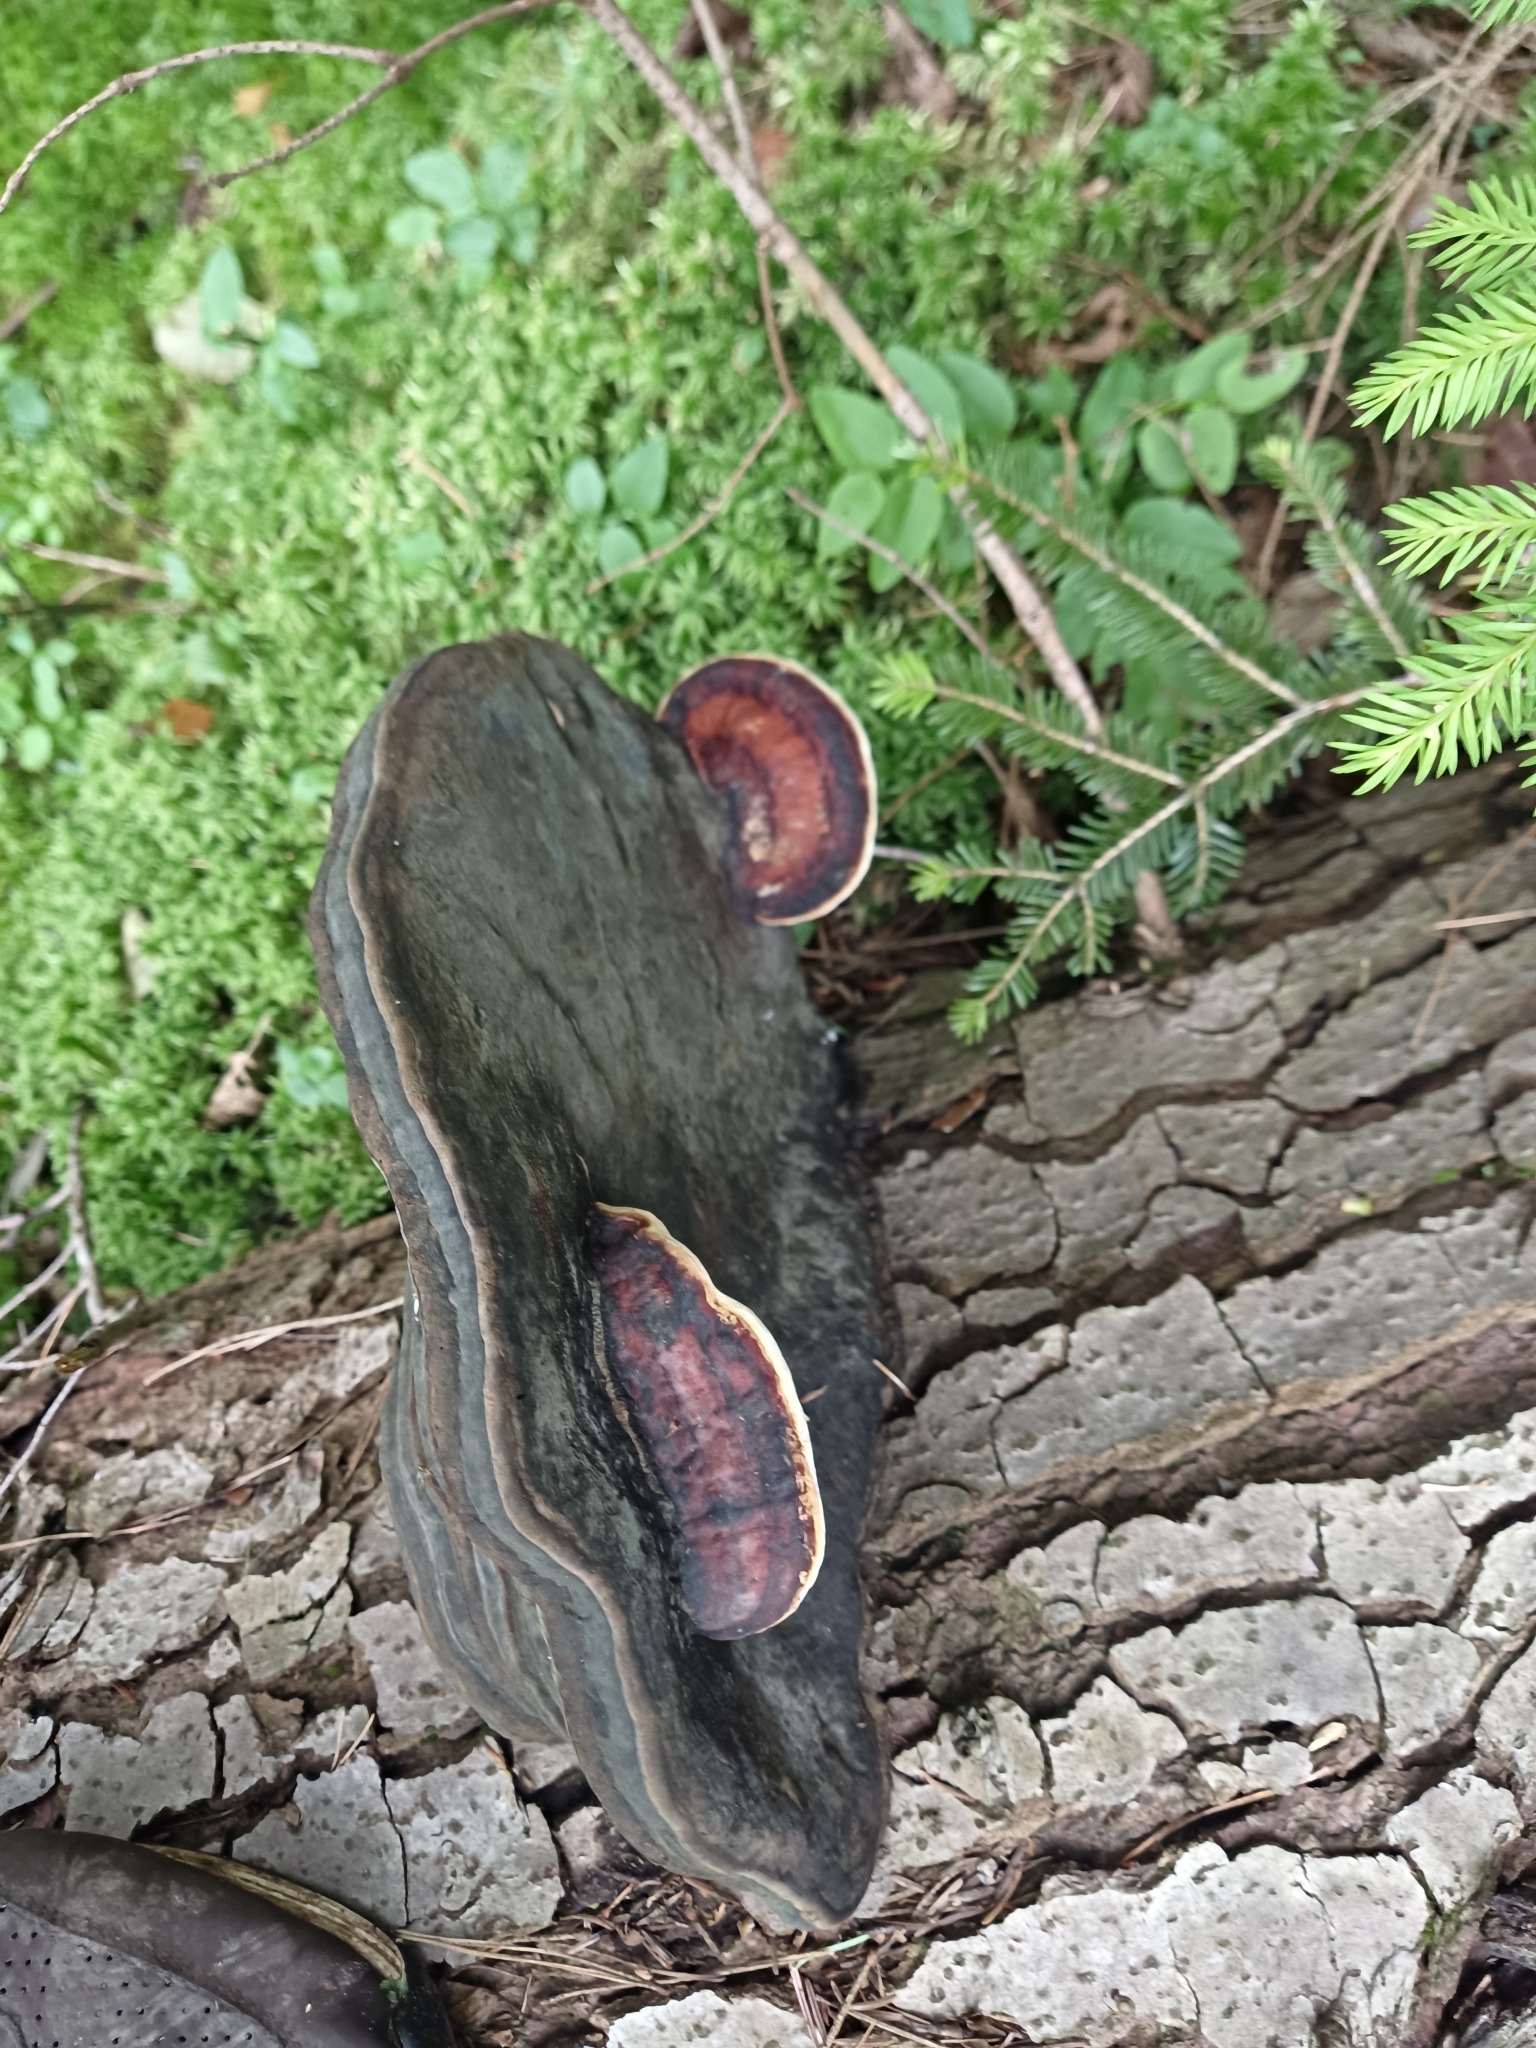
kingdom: Fungi
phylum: Basidiomycota
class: Agaricomycetes
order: Polyporales
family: Fomitopsidaceae
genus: Fomitopsis
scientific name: Fomitopsis pinicola
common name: Red-belted bracket
